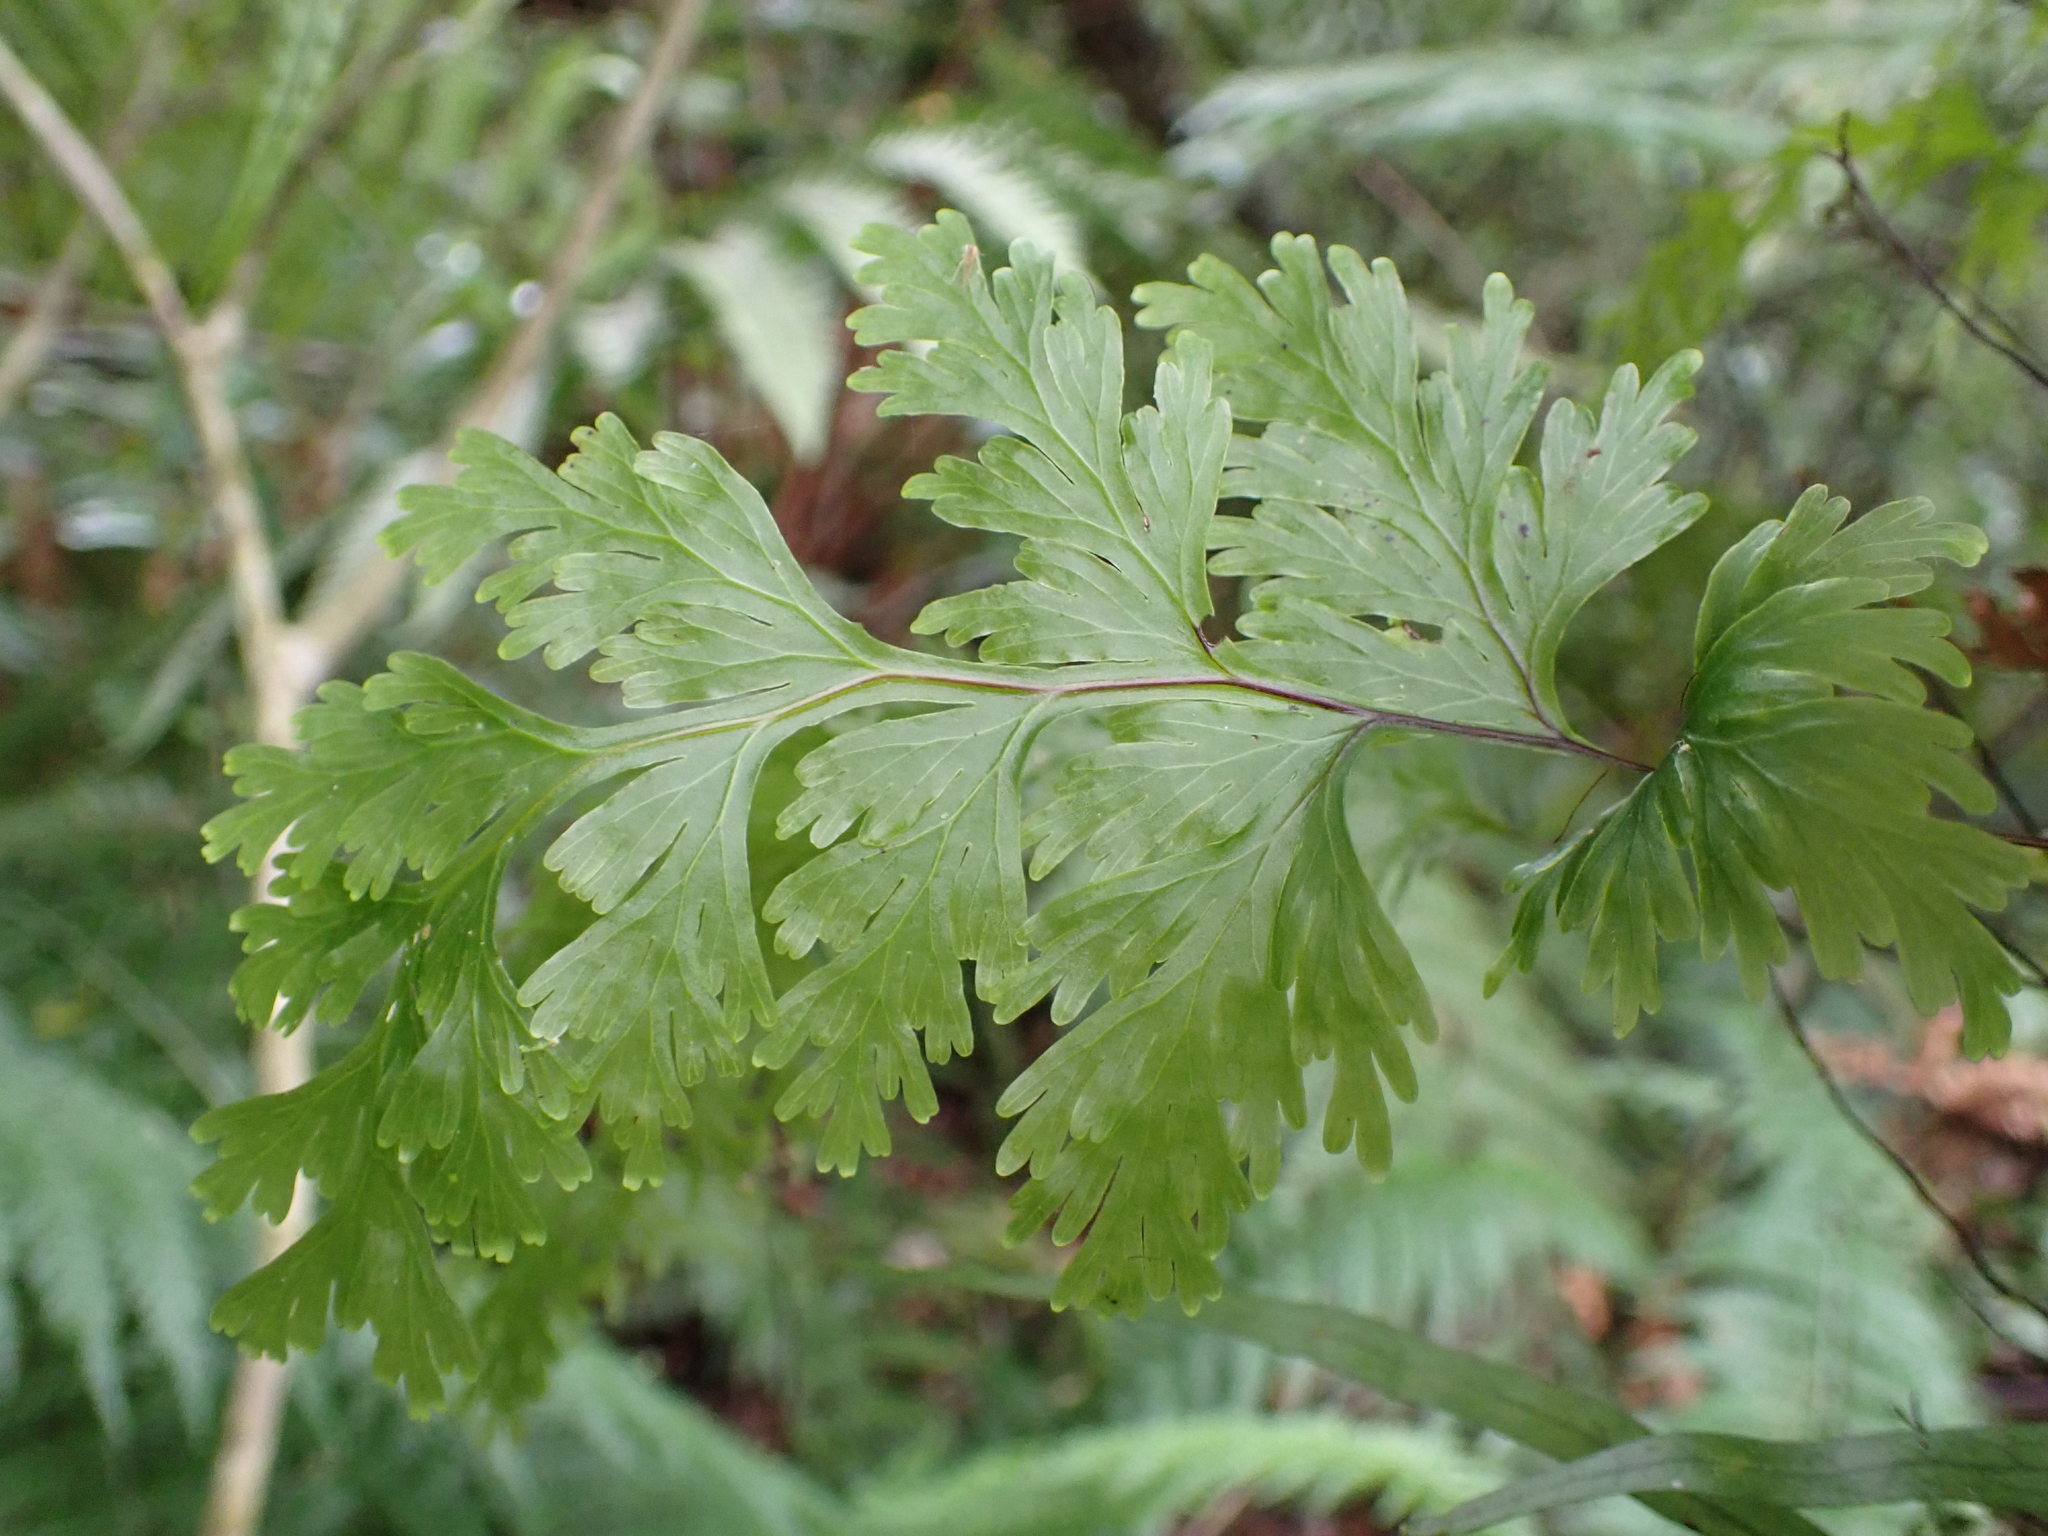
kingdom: Plantae
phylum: Tracheophyta
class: Polypodiopsida
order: Hymenophyllales
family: Hymenophyllaceae
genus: Hymenophyllum
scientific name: Hymenophyllum dilatatum
